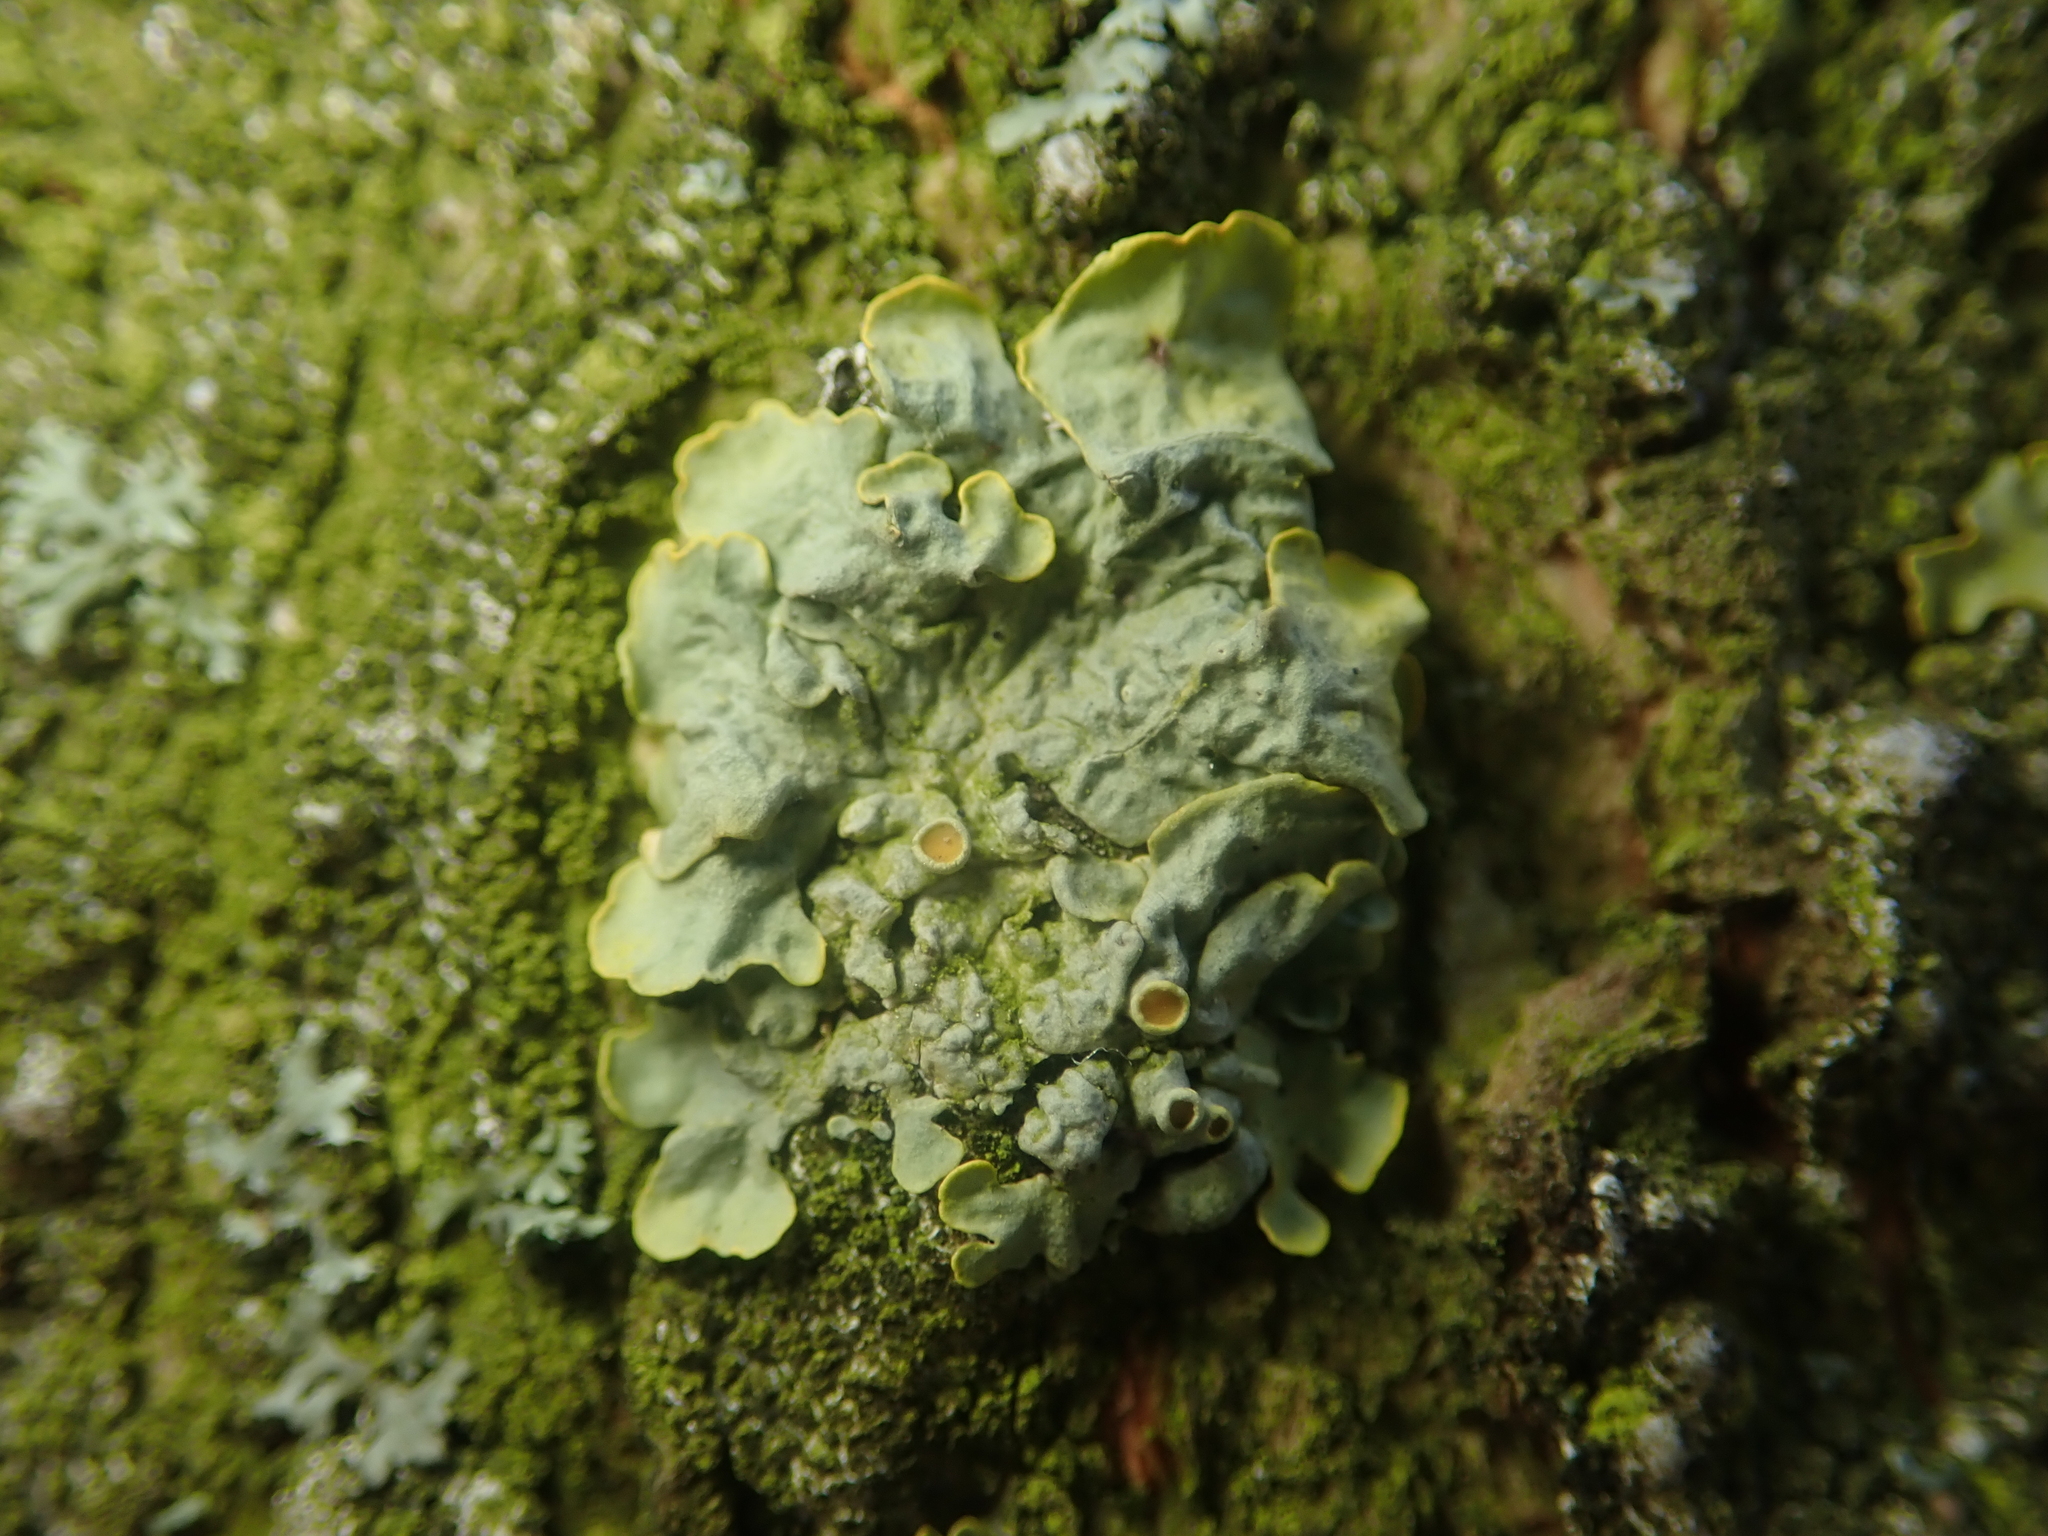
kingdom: Fungi
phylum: Ascomycota
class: Lecanoromycetes
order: Teloschistales
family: Teloschistaceae
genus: Xanthoria
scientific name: Xanthoria parietina
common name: Common orange lichen
